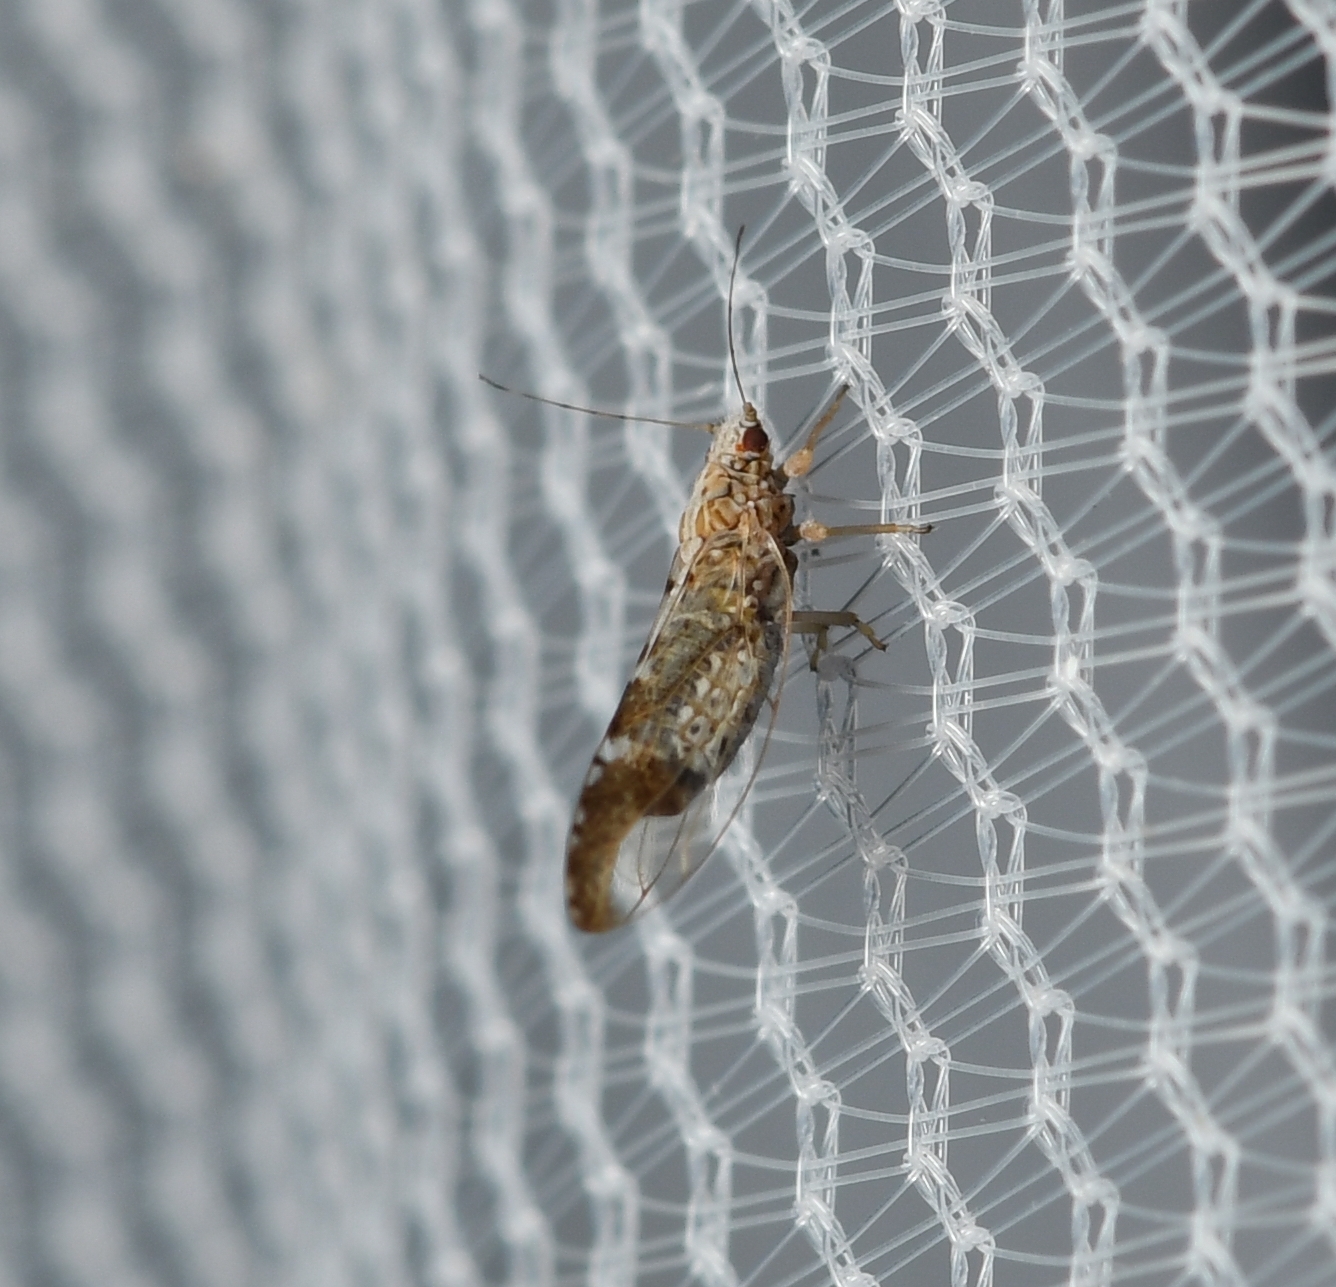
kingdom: Animalia
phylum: Arthropoda
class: Insecta
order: Hemiptera
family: Triozidae
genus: Leuronota
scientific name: Leuronota maculata
